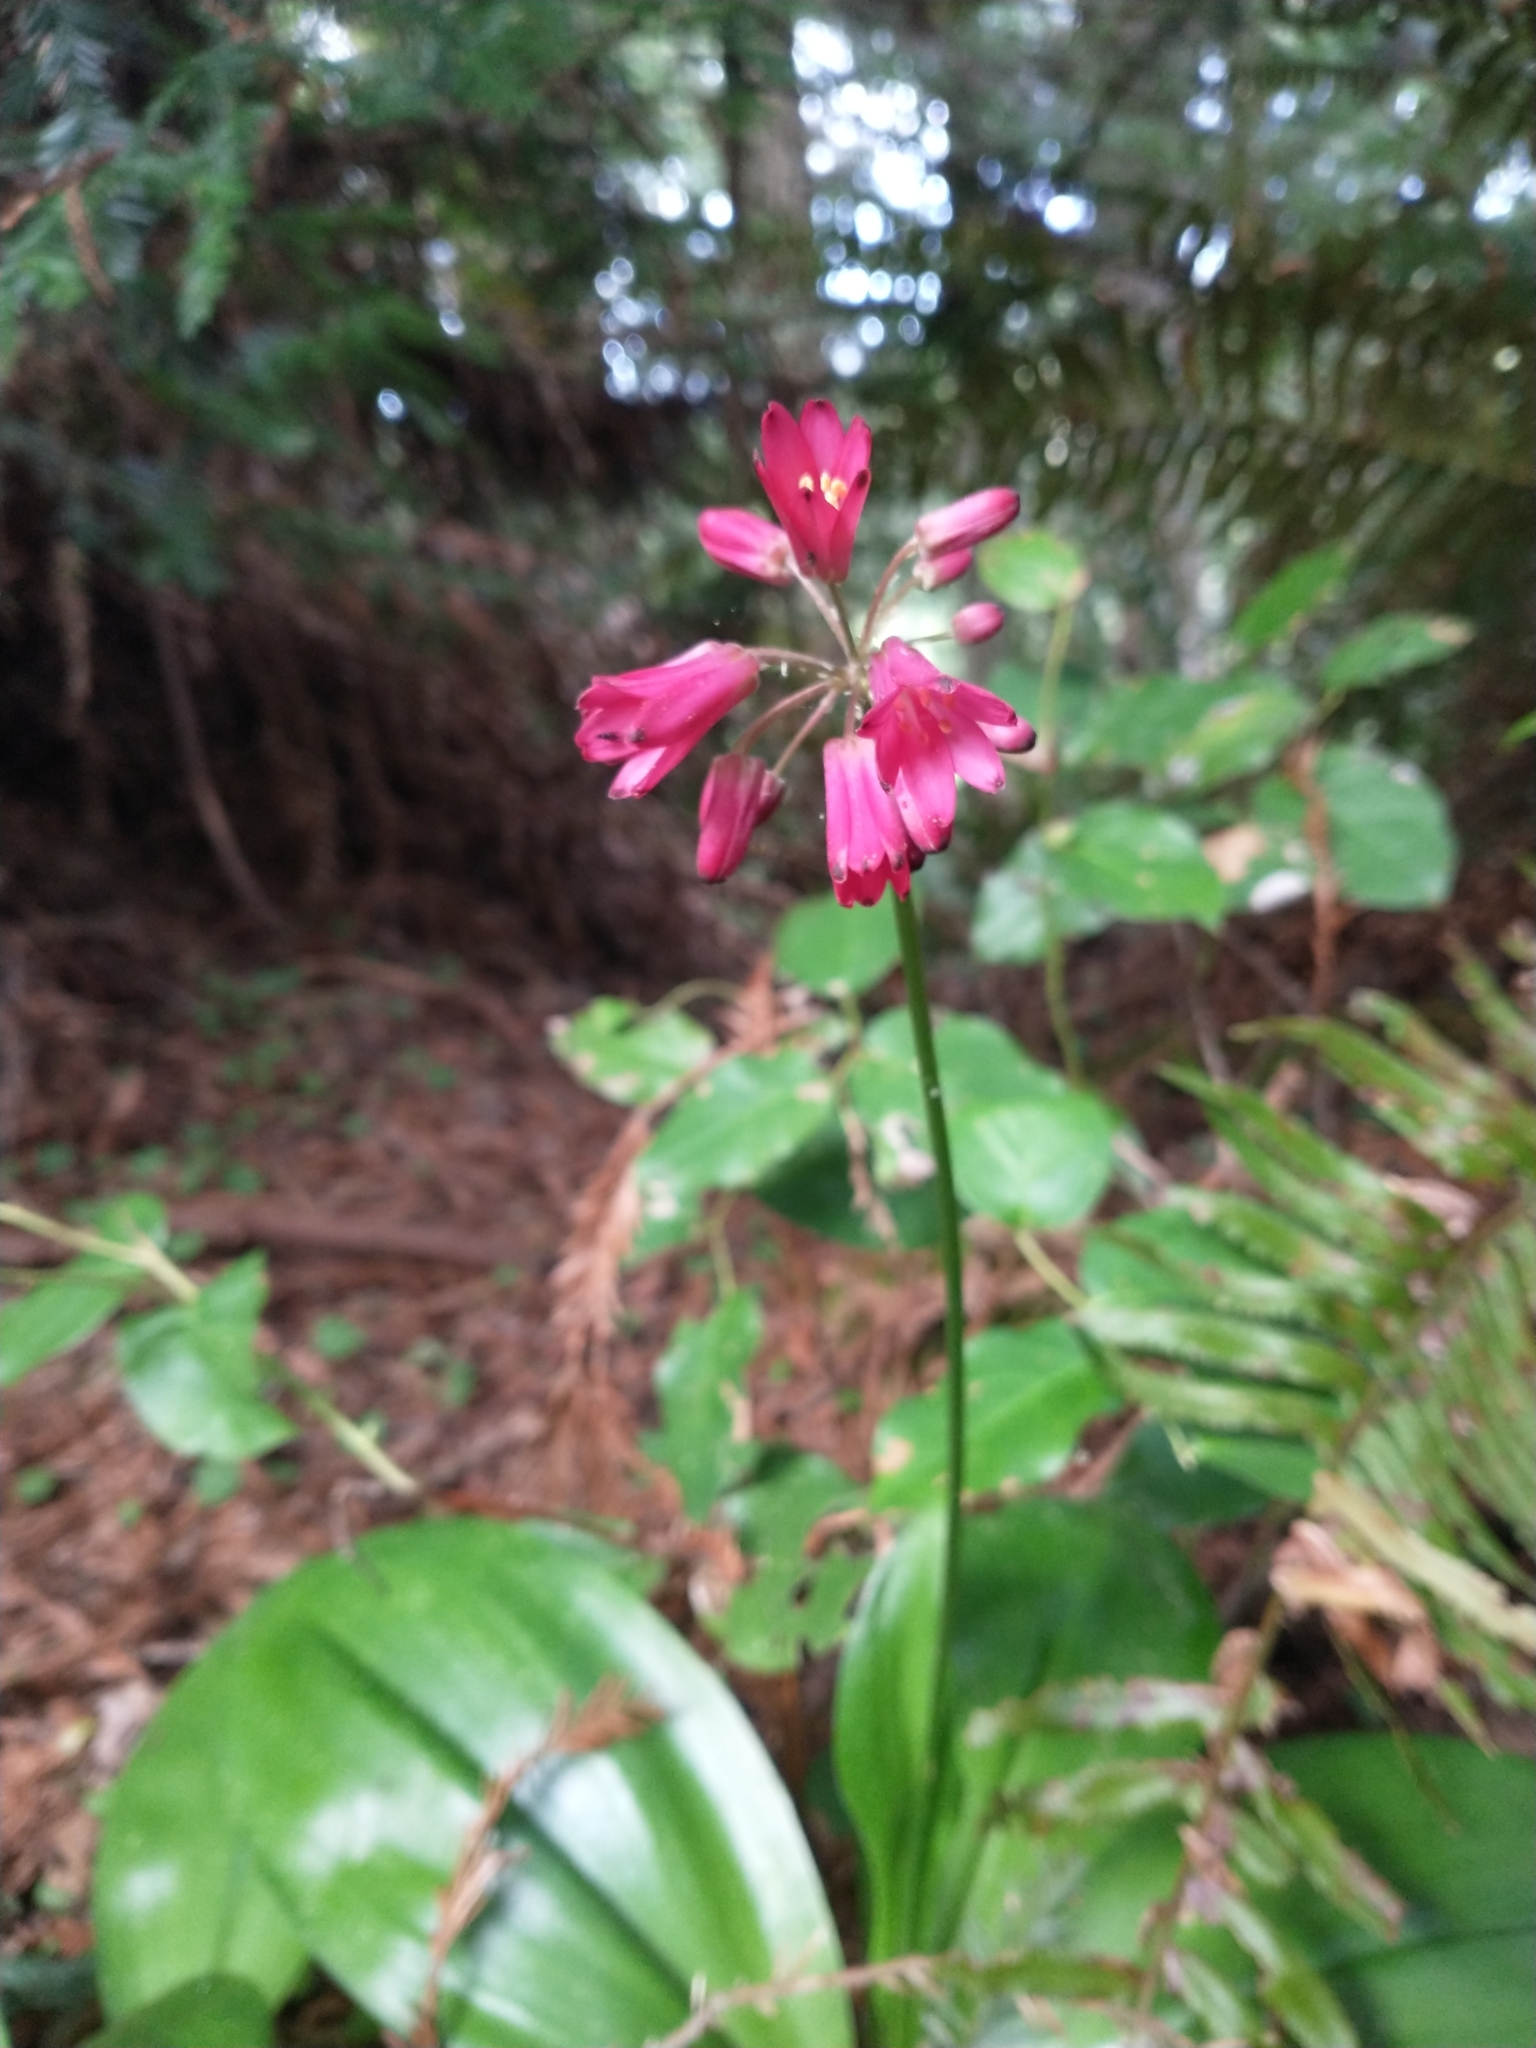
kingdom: Plantae
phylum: Tracheophyta
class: Liliopsida
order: Liliales
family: Liliaceae
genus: Clintonia
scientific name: Clintonia andrewsiana
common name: Red clintonia
